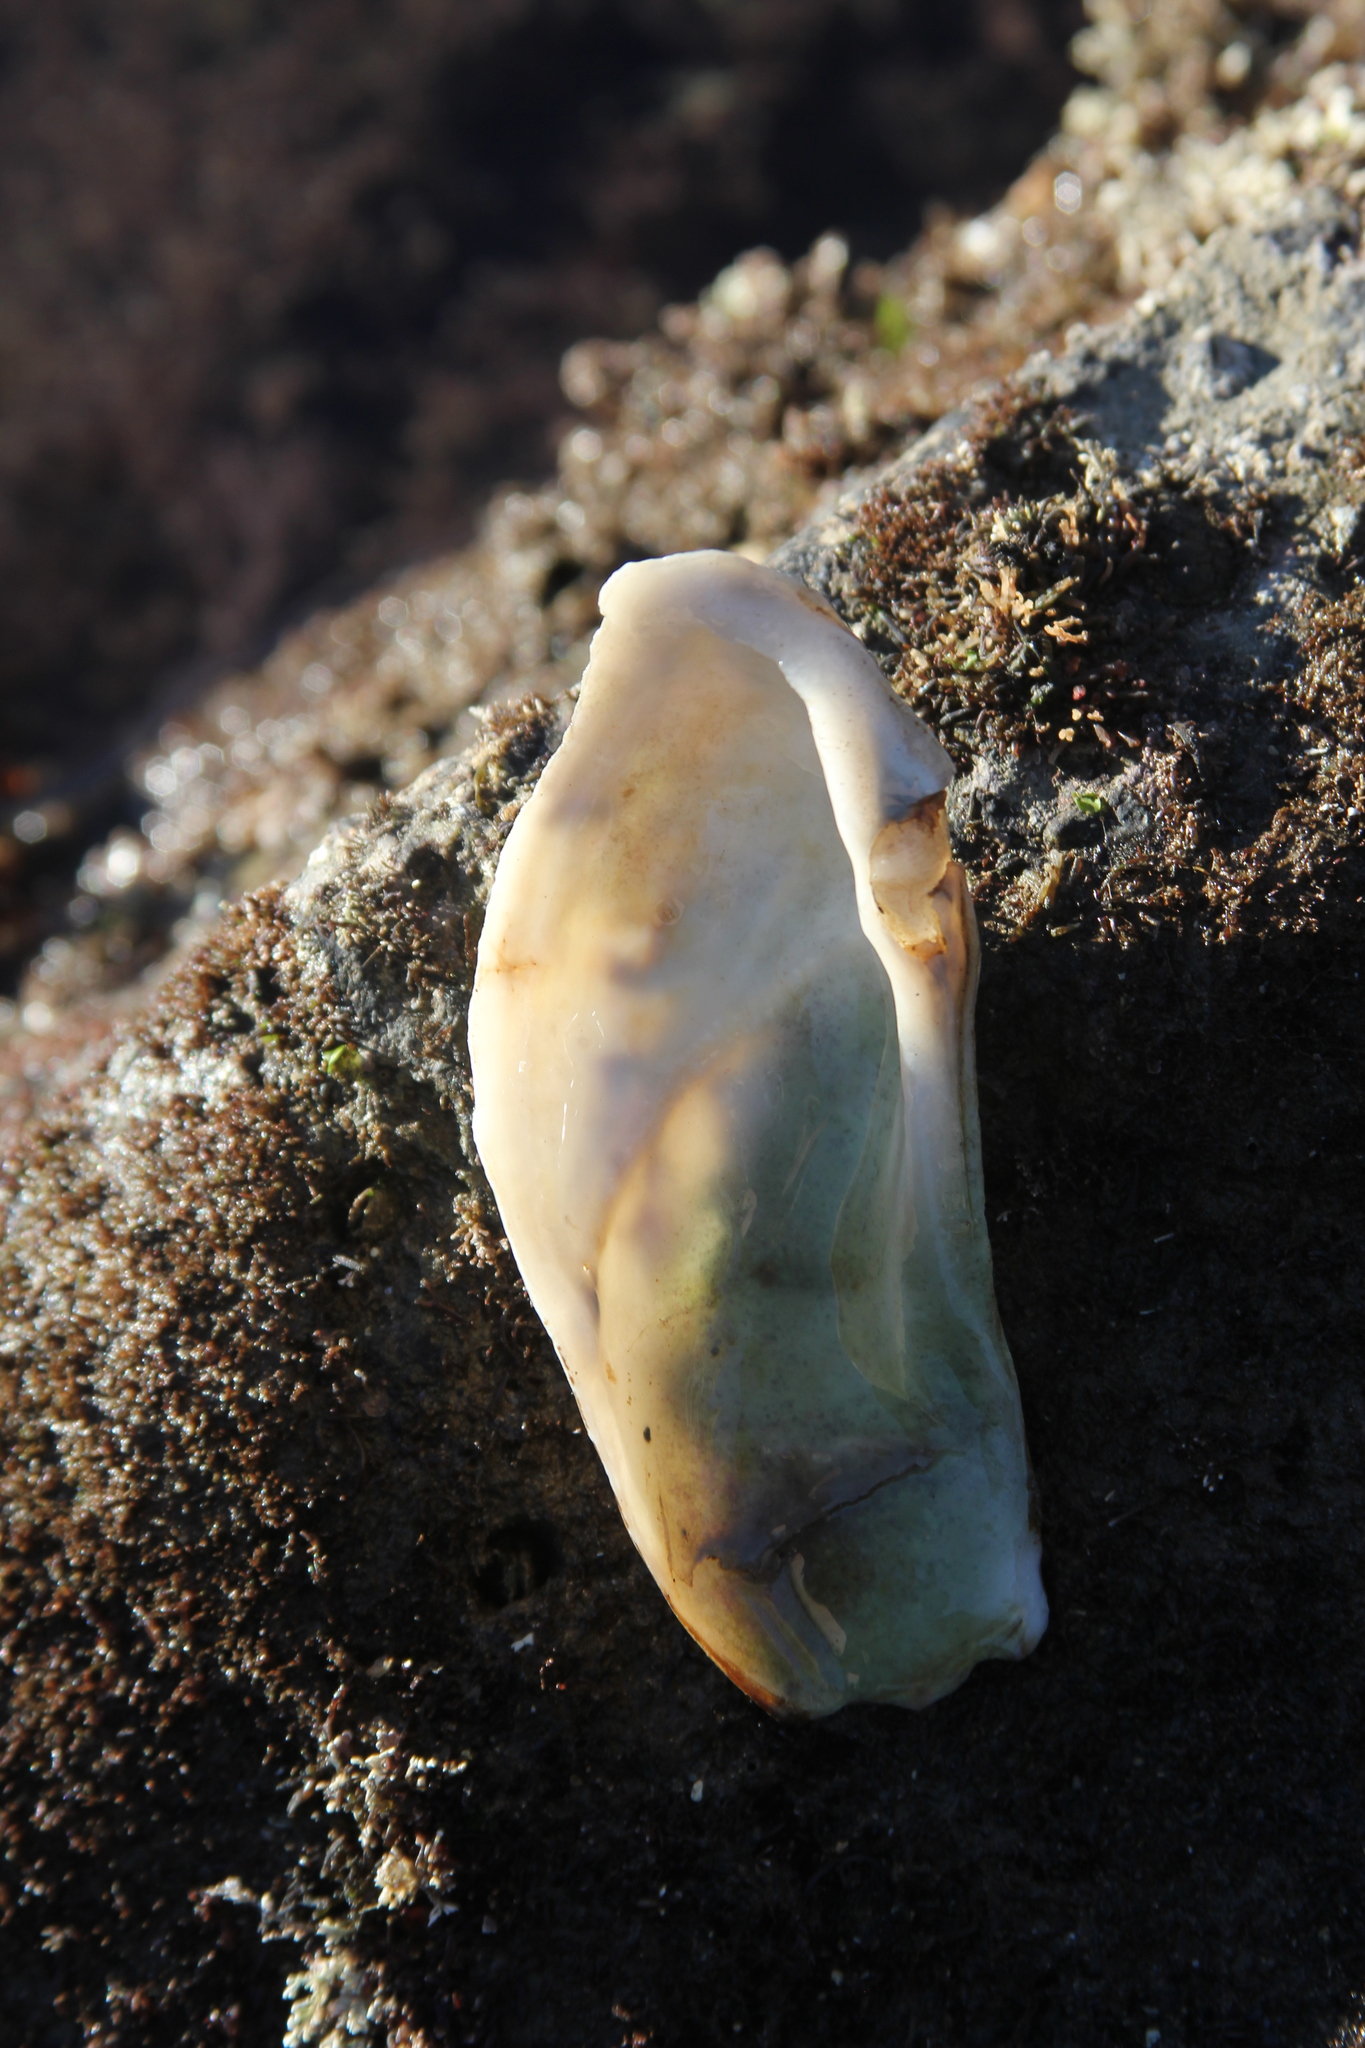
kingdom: Animalia
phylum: Mollusca
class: Bivalvia
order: Myida
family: Pholadidae
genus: Parapholas
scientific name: Parapholas californica
